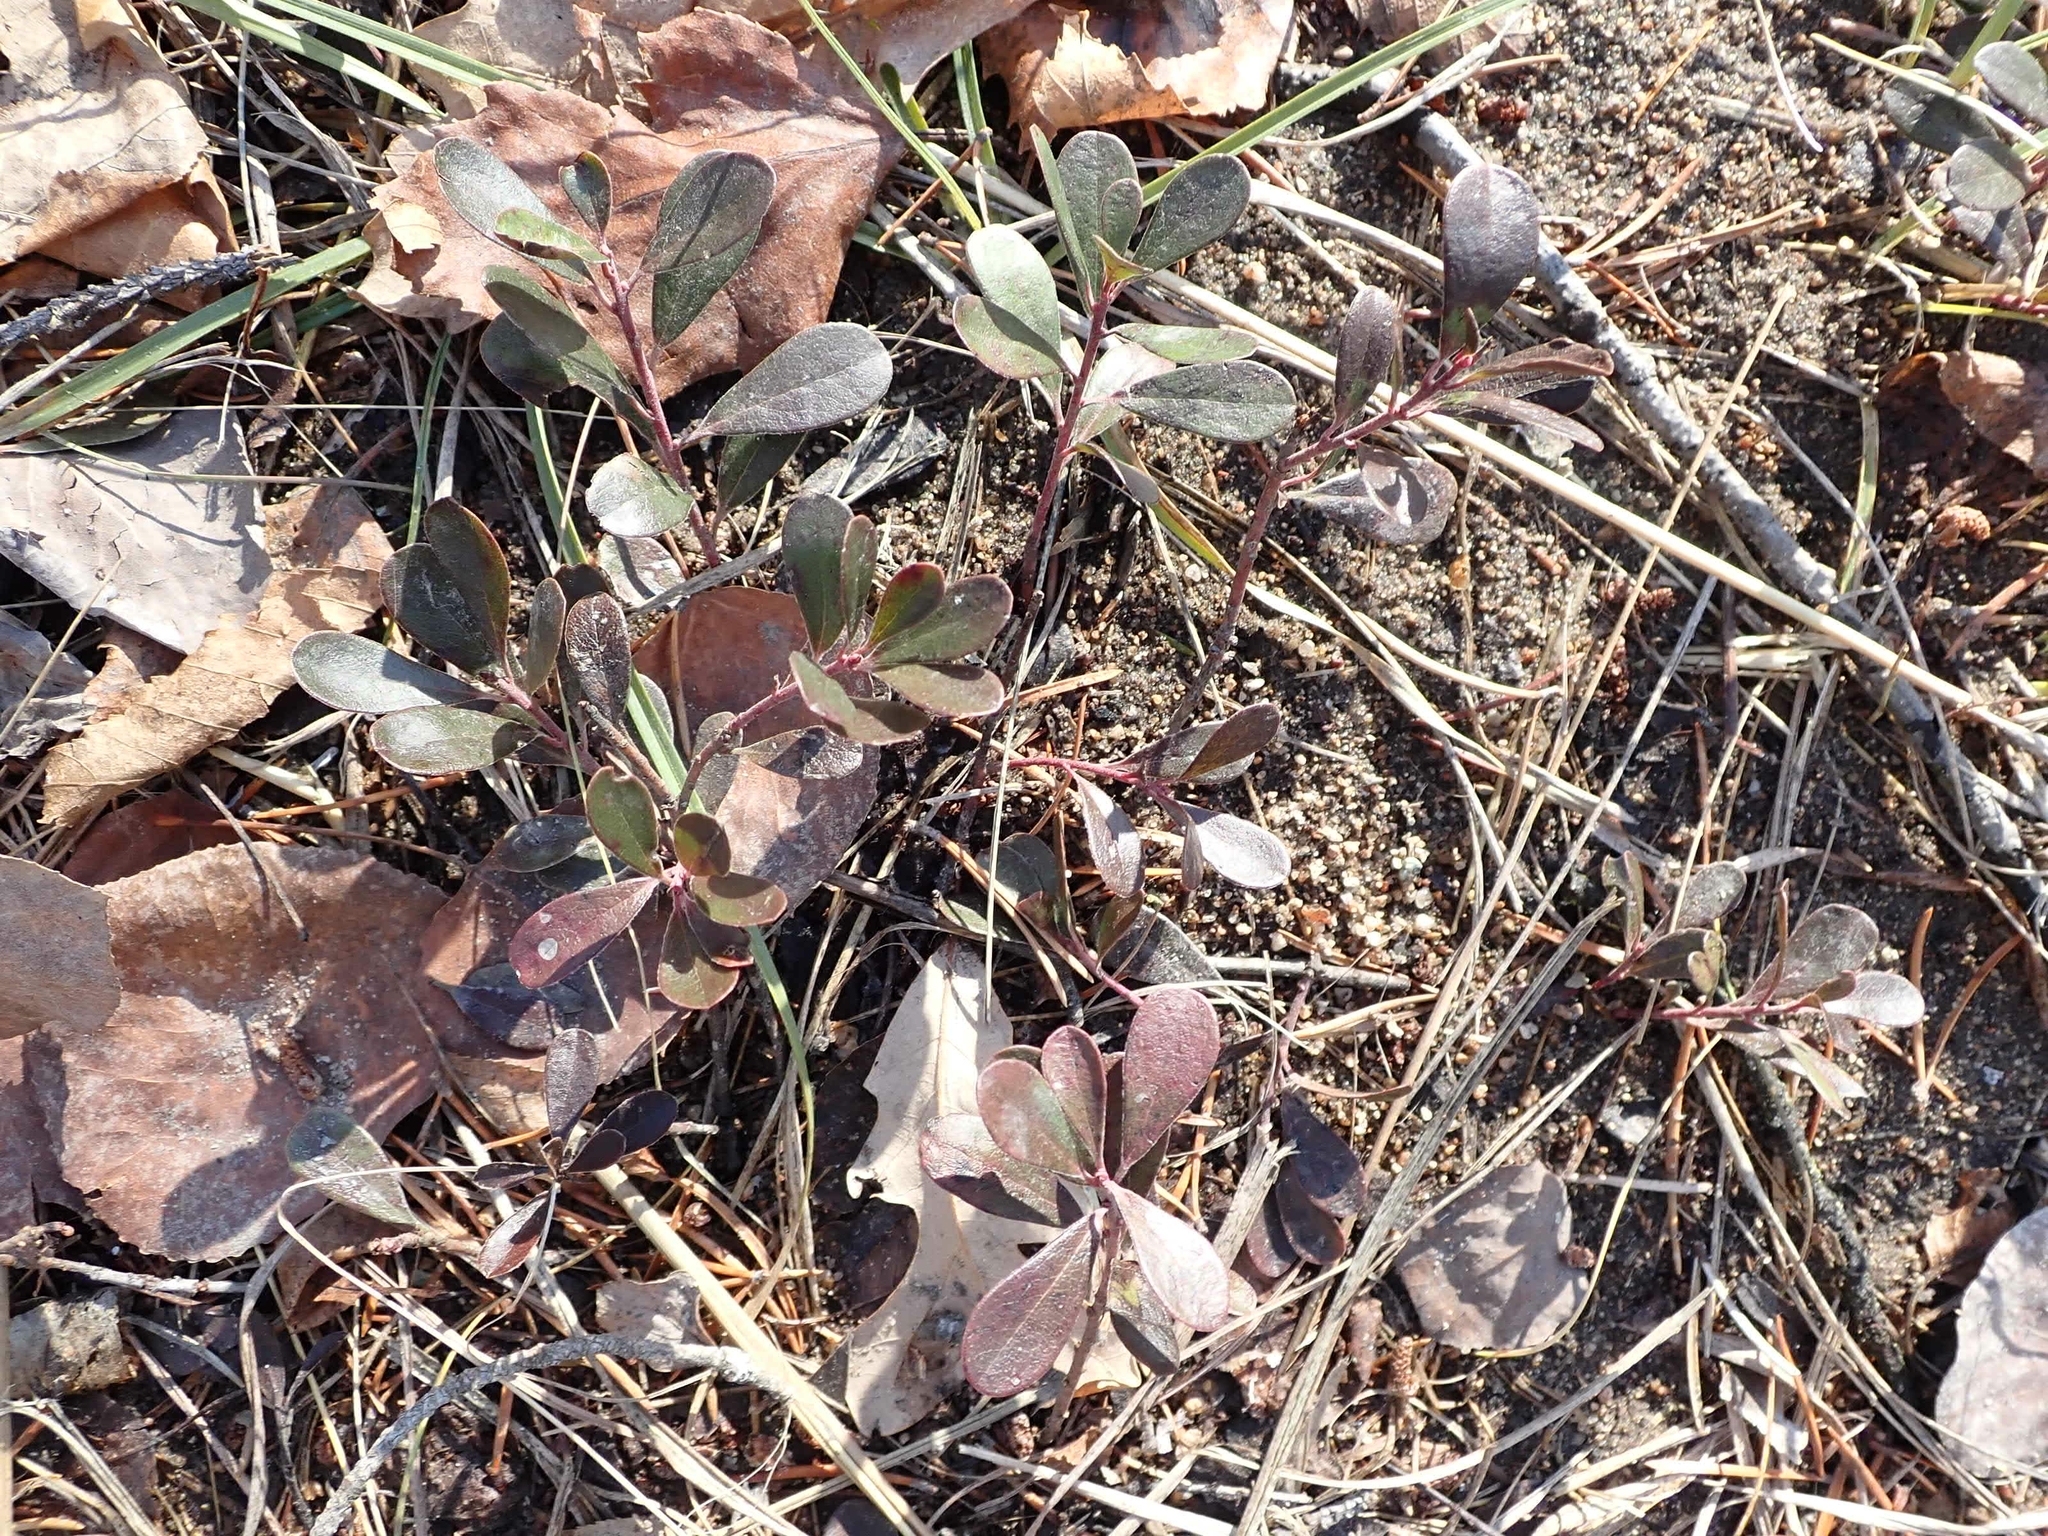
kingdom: Plantae
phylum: Tracheophyta
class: Magnoliopsida
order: Ericales
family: Ericaceae
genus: Arctostaphylos
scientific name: Arctostaphylos uva-ursi
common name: Bearberry
